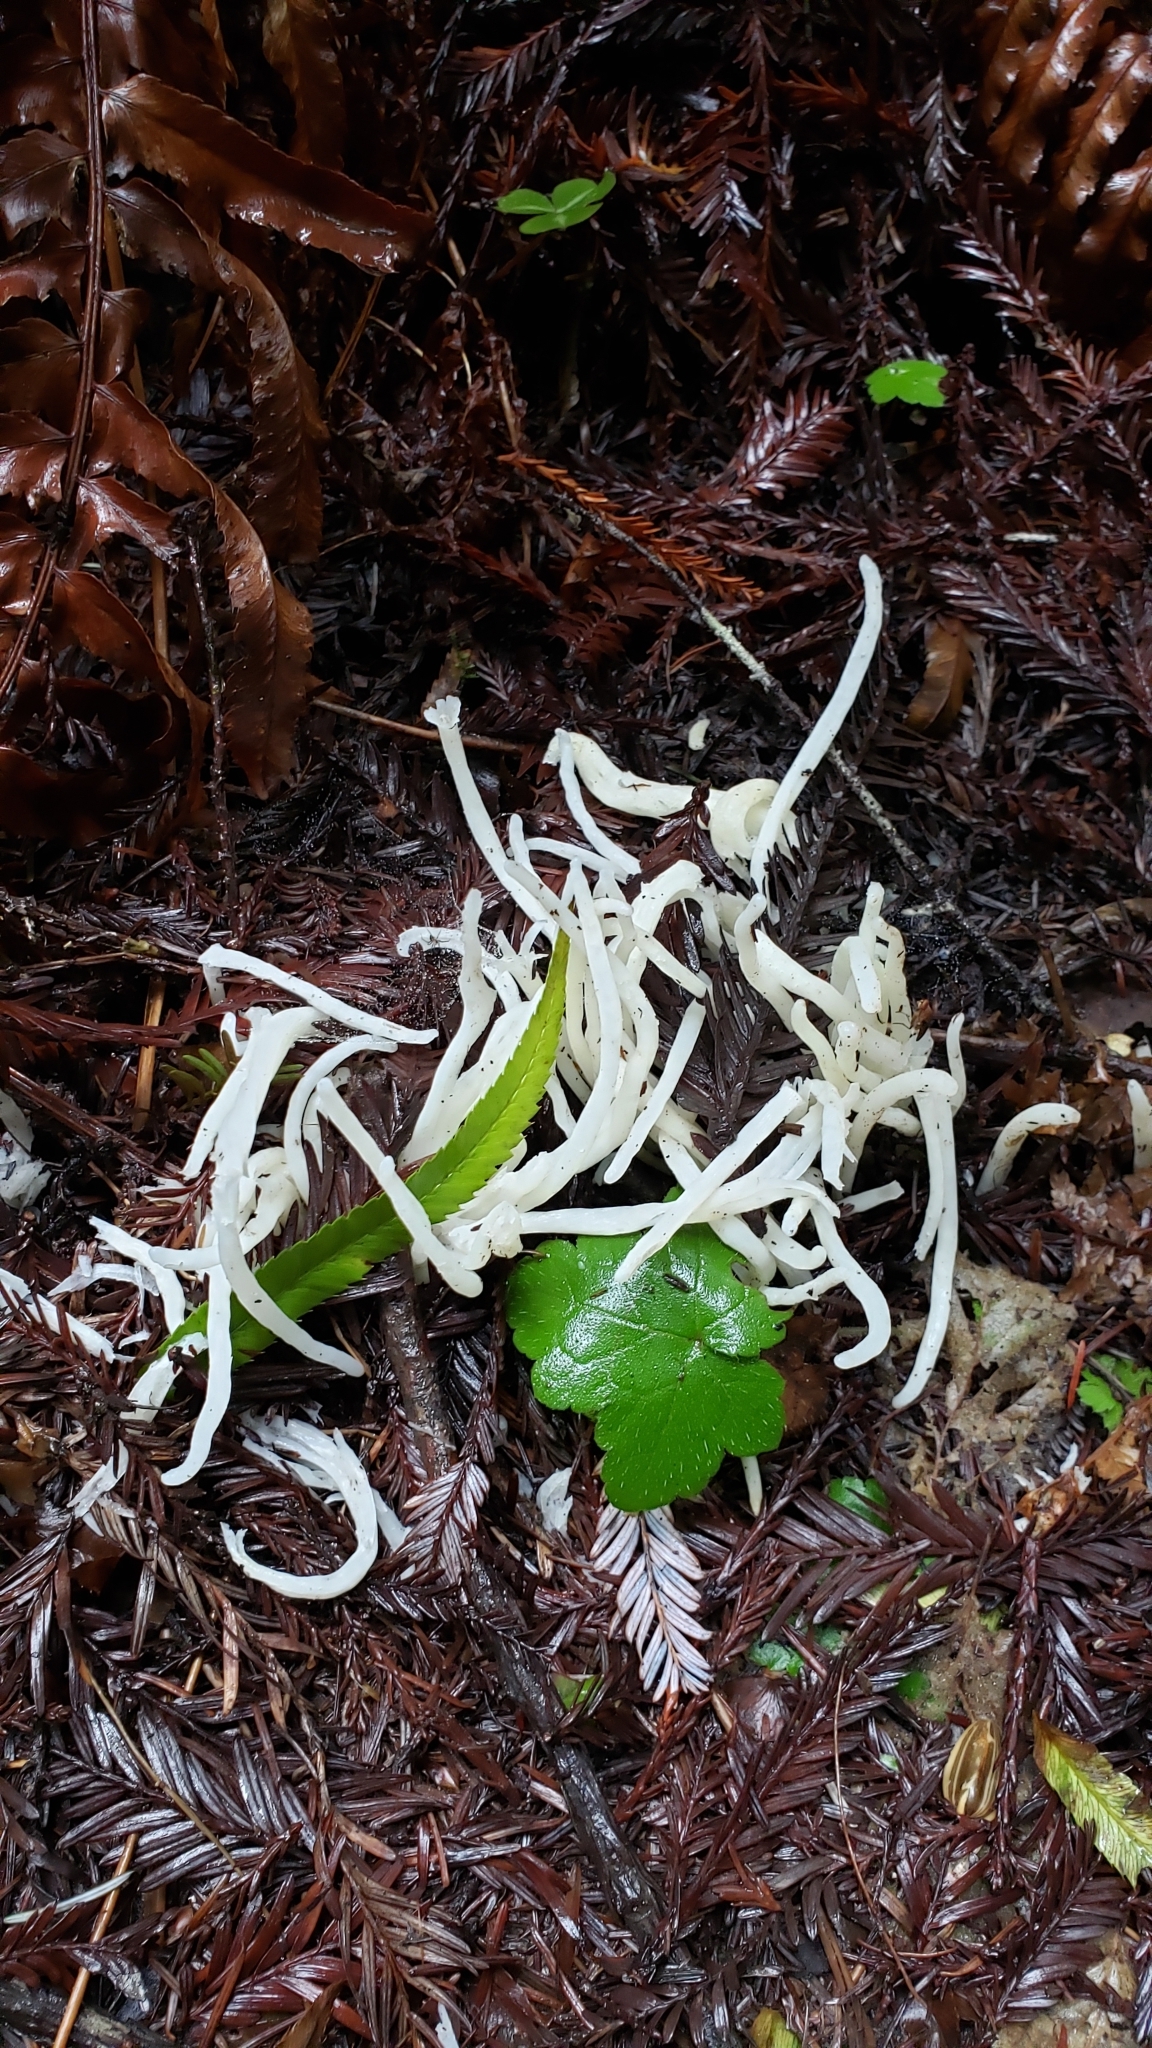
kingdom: Fungi
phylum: Basidiomycota
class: Agaricomycetes
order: Agaricales
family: Clavariaceae
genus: Clavaria
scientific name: Clavaria fragilis
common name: White spindles
